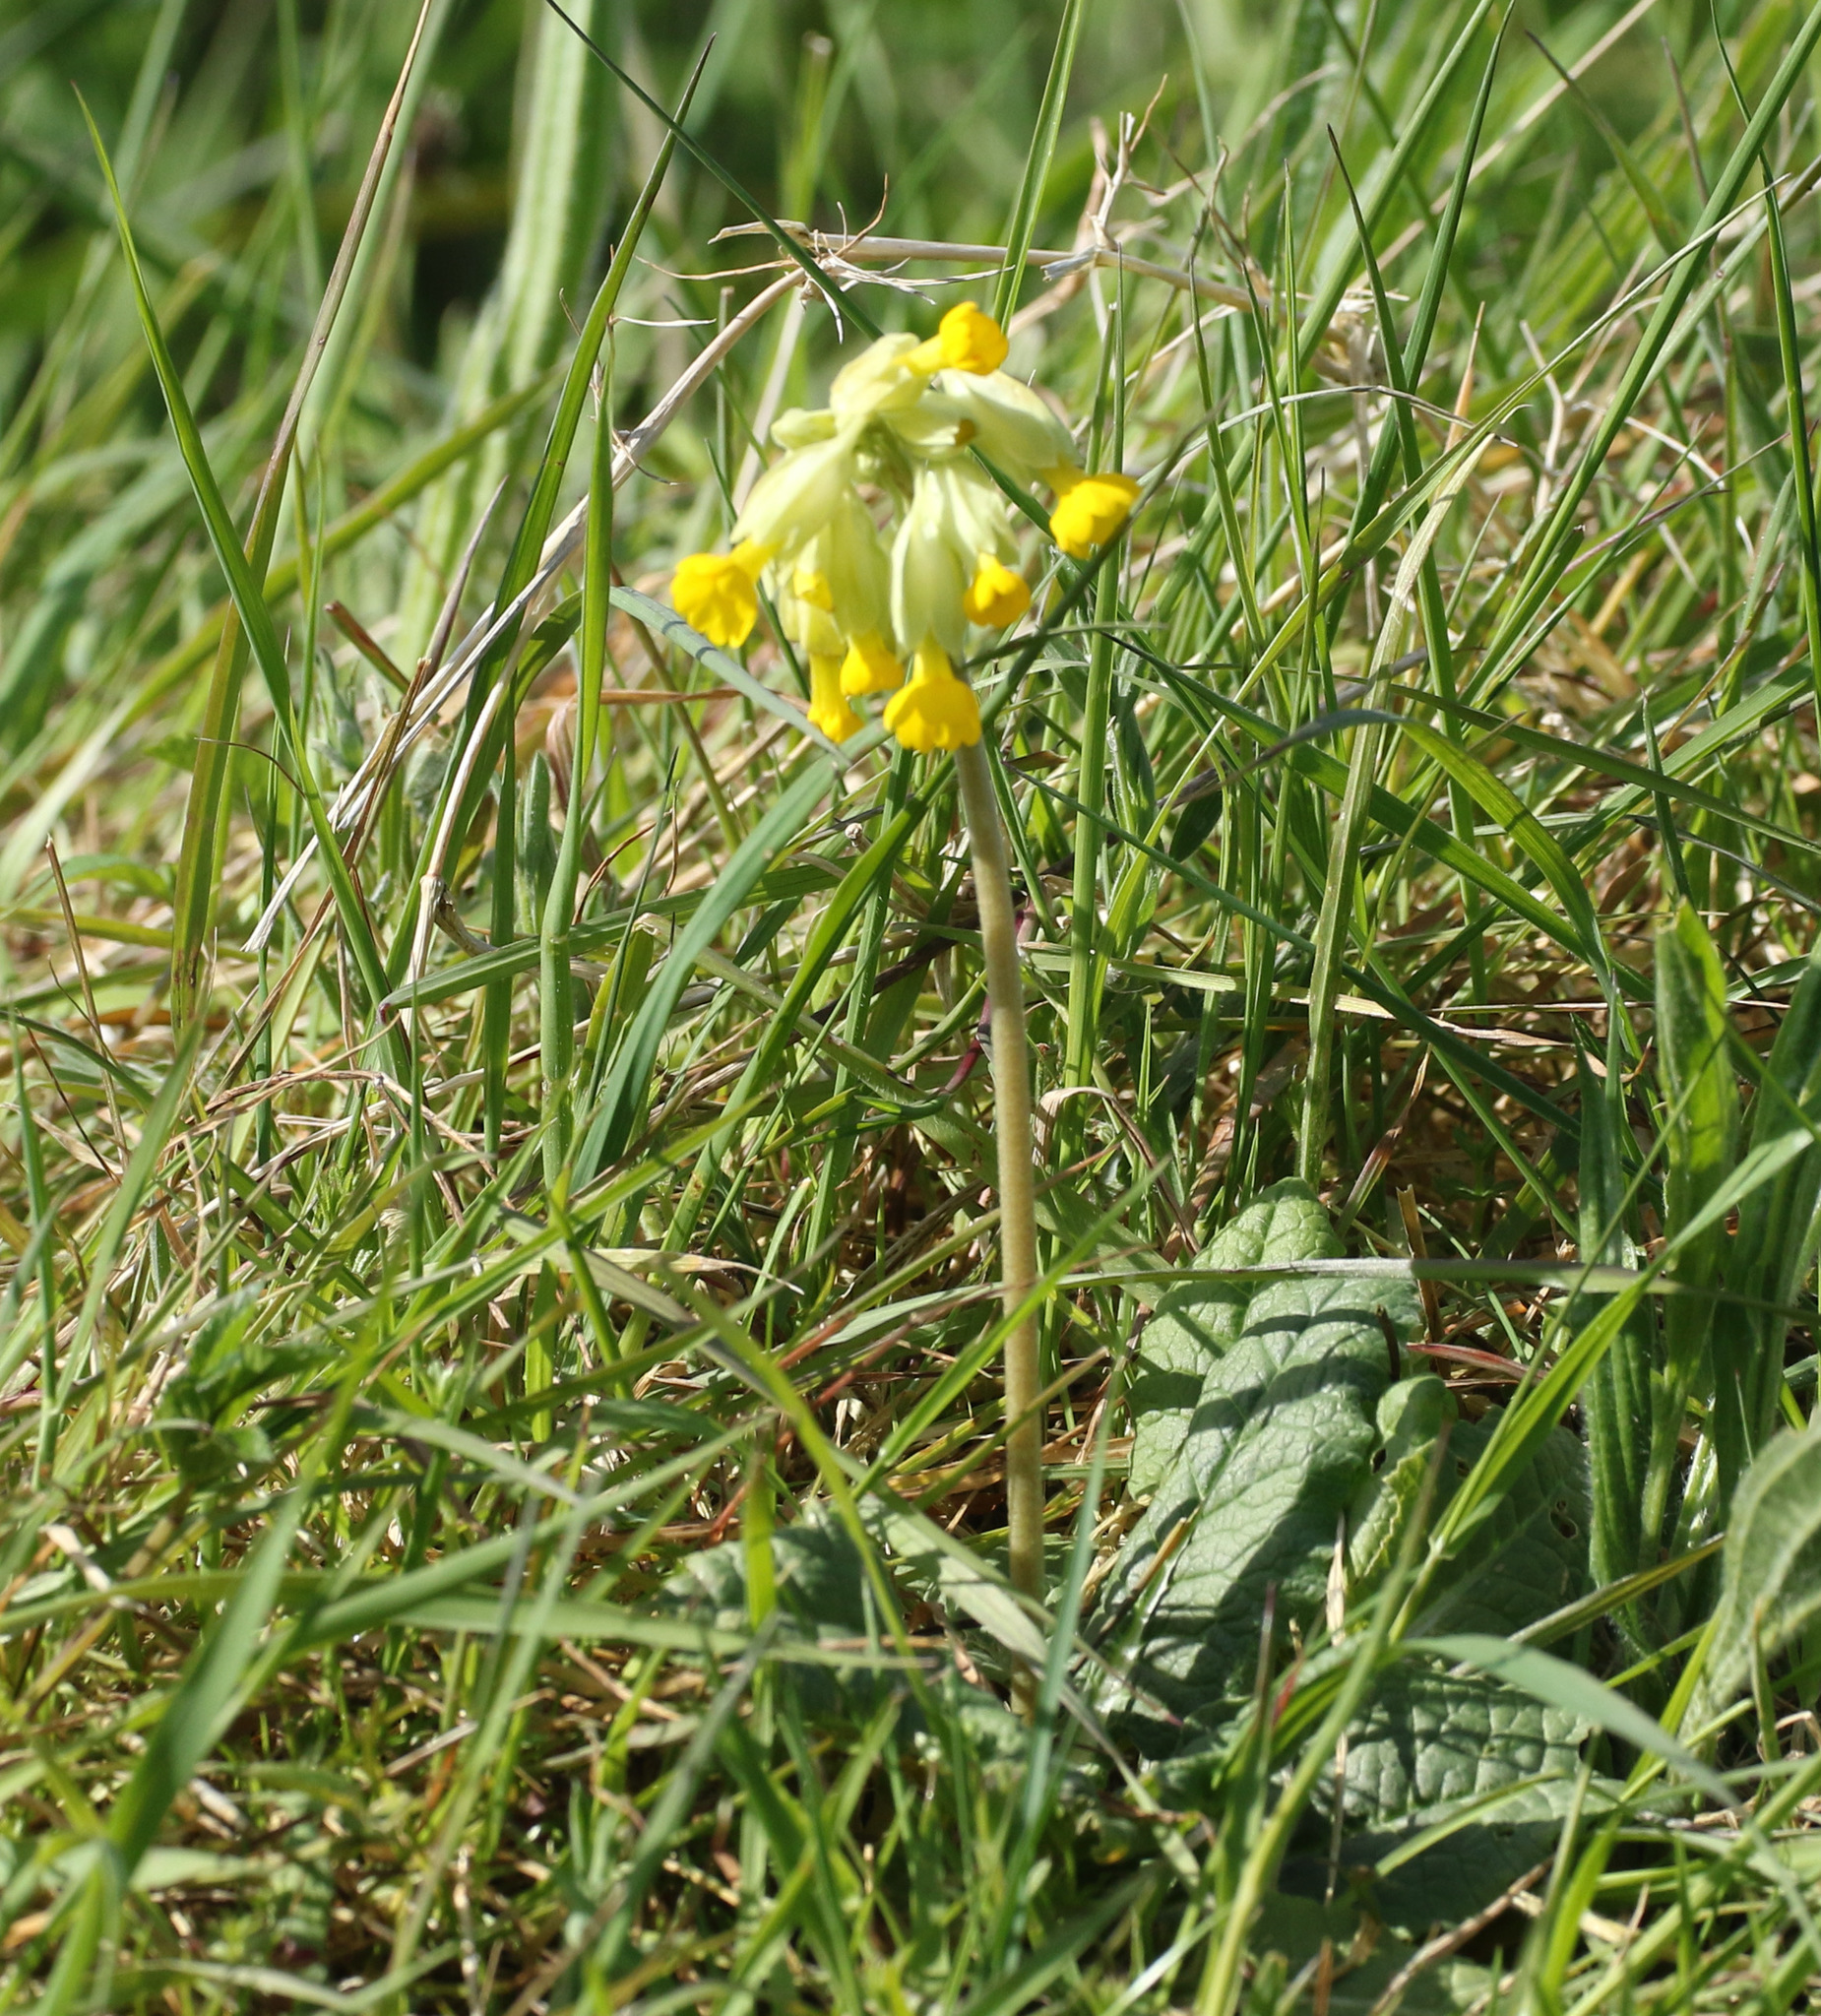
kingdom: Plantae
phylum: Tracheophyta
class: Magnoliopsida
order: Ericales
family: Primulaceae
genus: Primula
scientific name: Primula veris
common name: Cowslip
